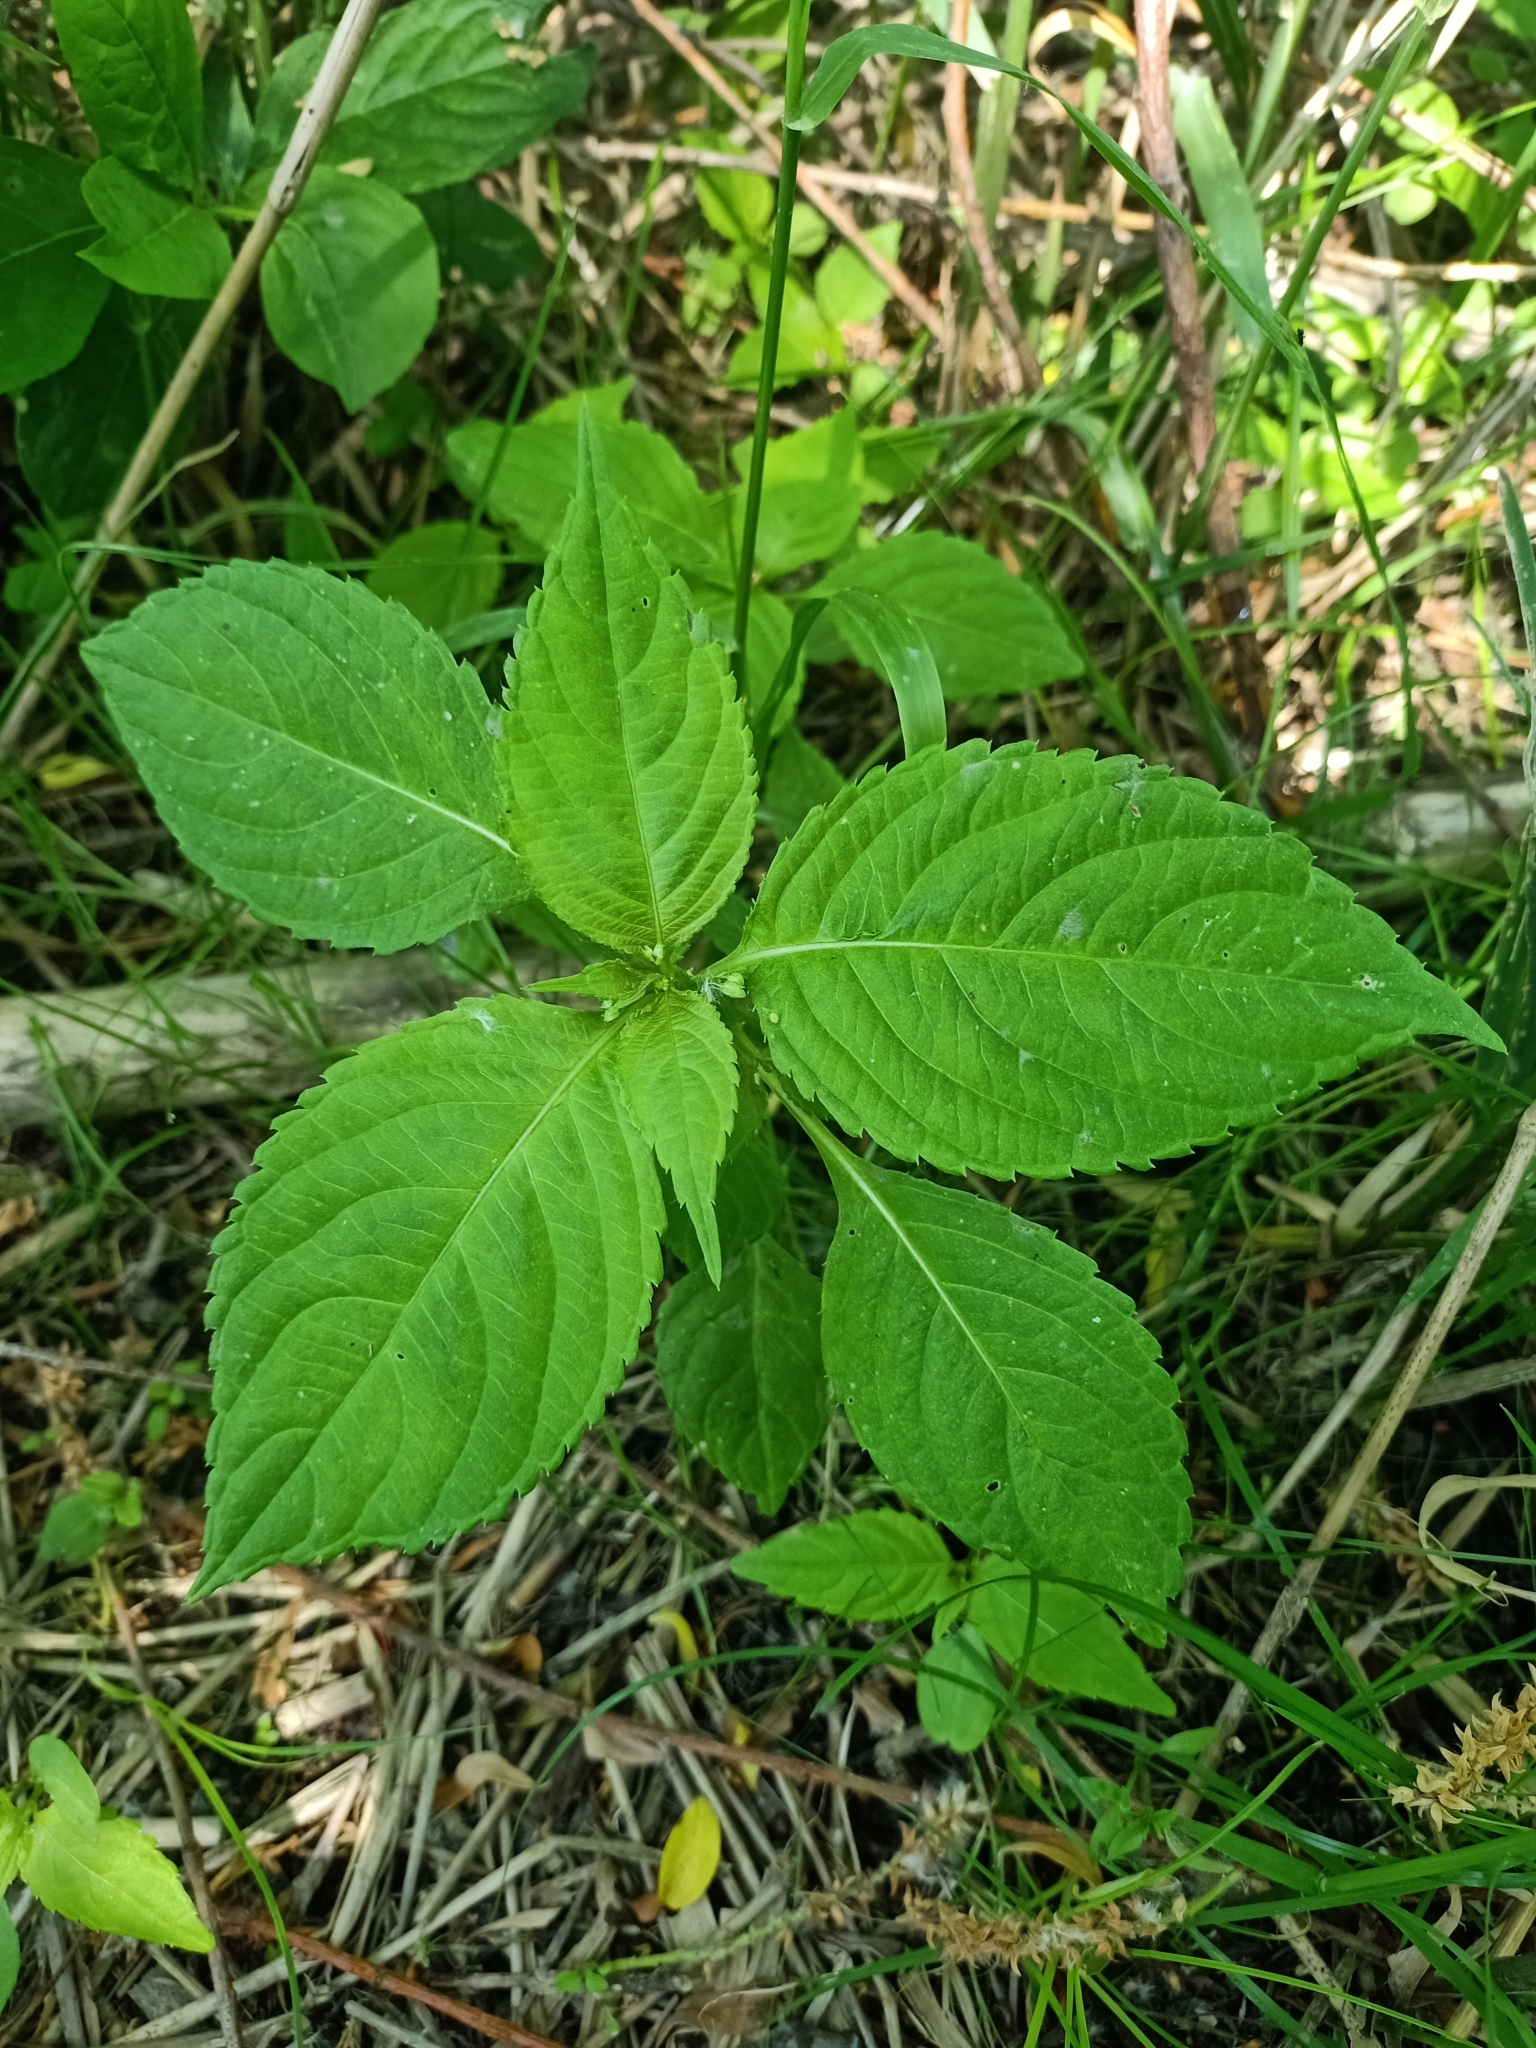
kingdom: Plantae
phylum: Tracheophyta
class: Magnoliopsida
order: Ericales
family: Balsaminaceae
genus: Impatiens
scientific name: Impatiens parviflora
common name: Small balsam
